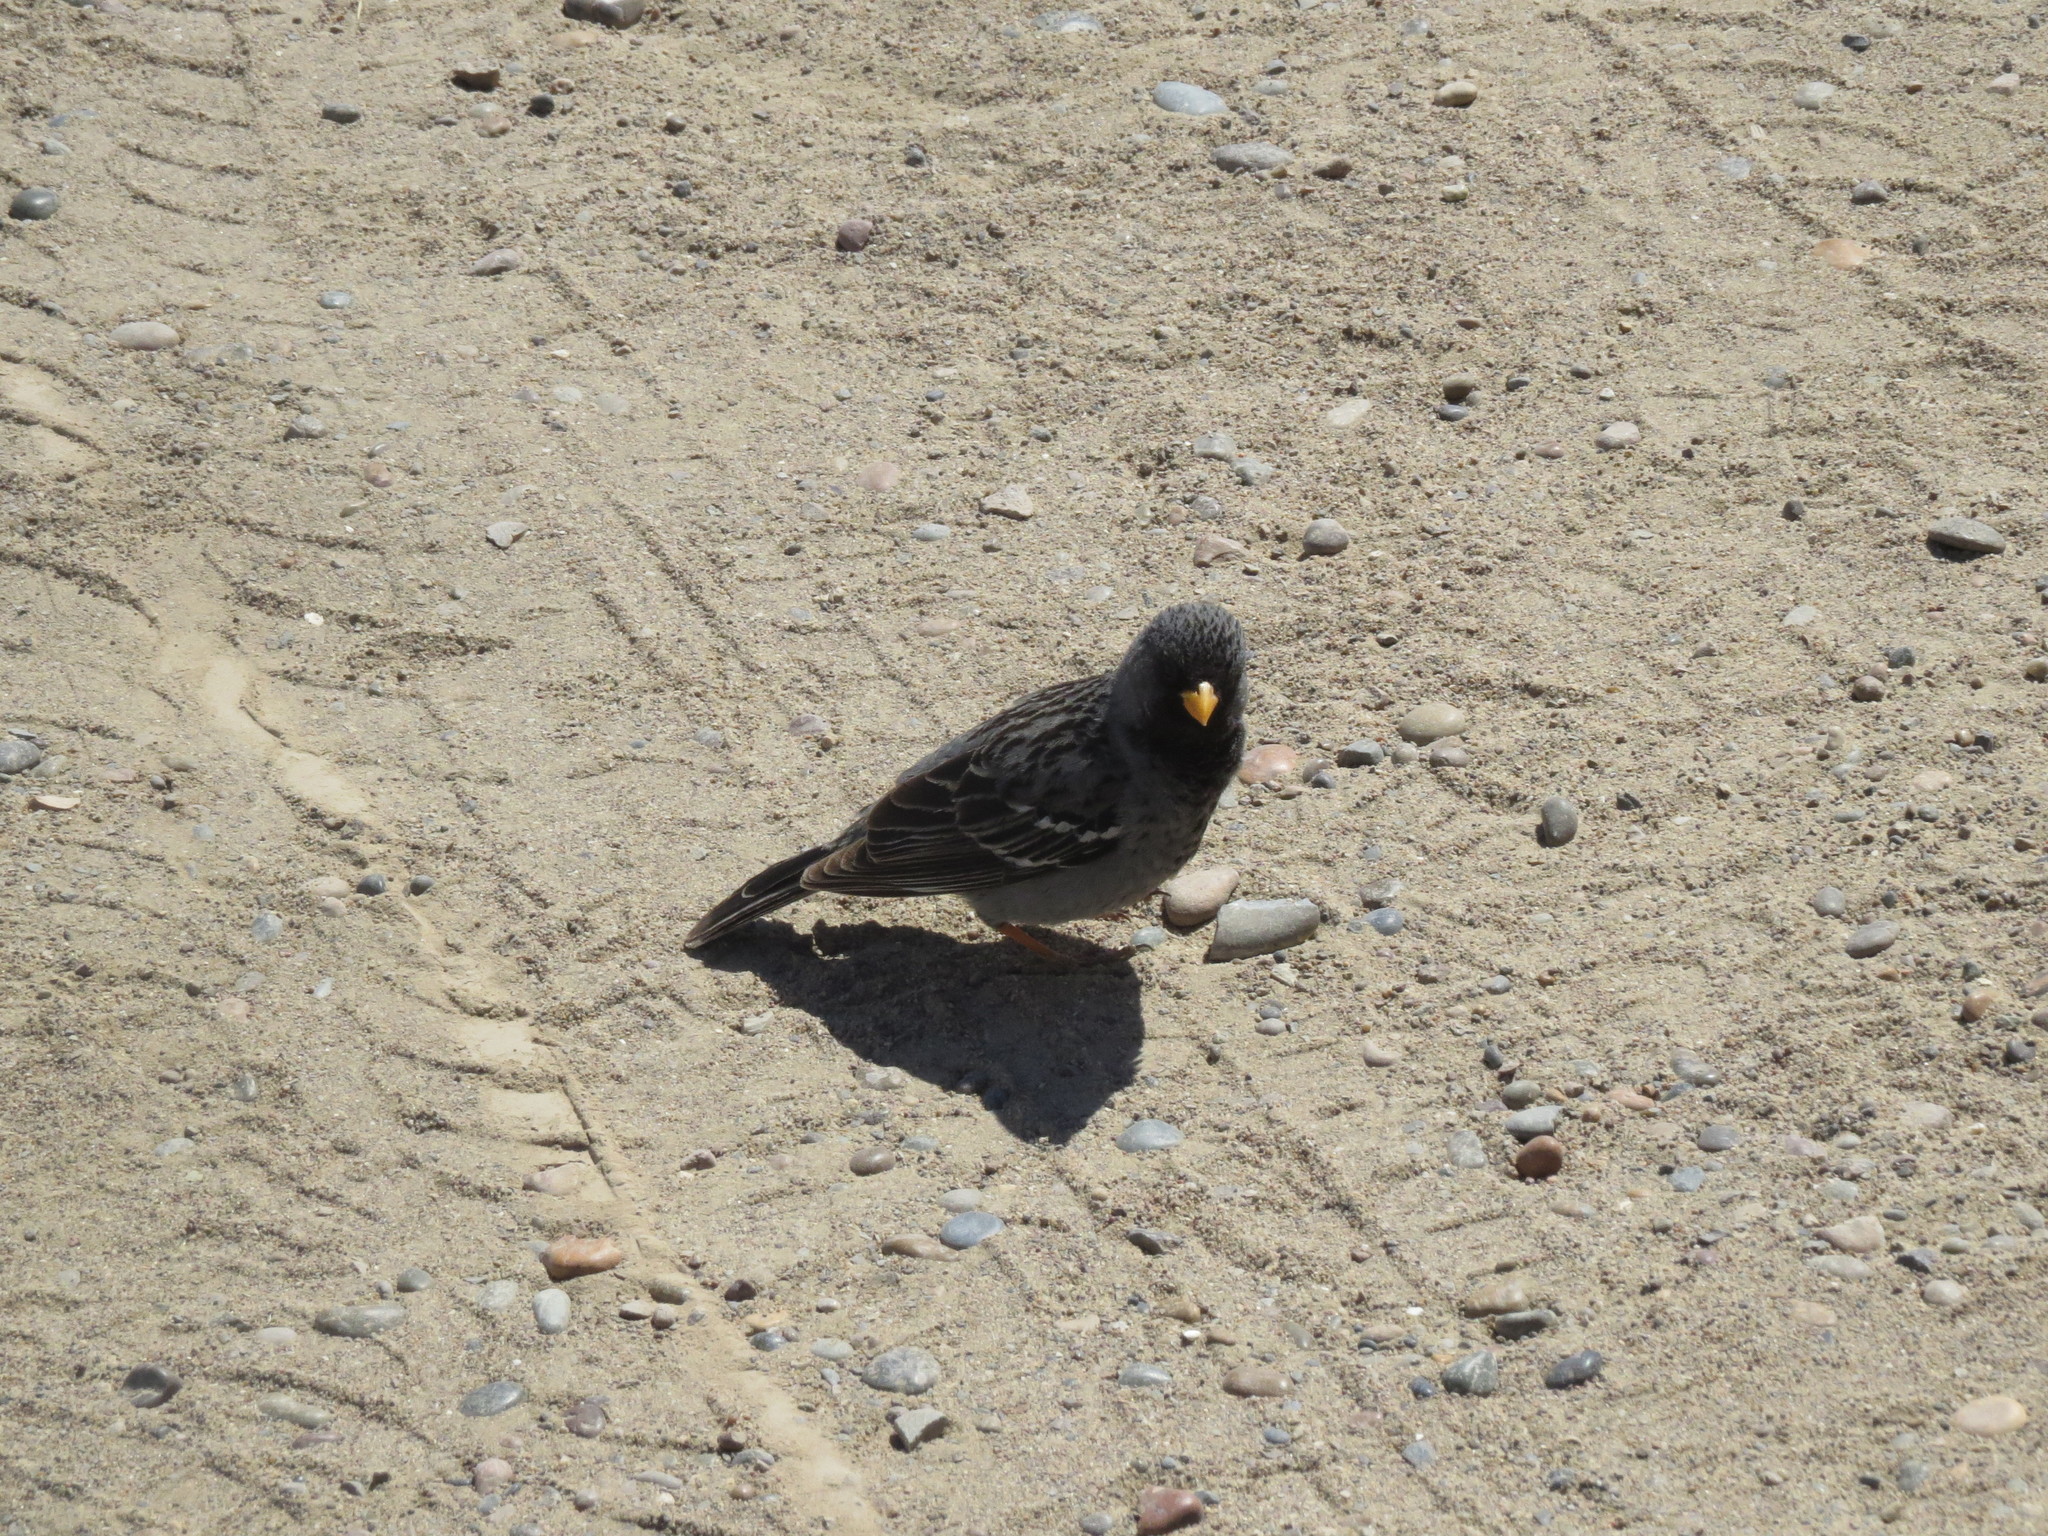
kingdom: Animalia
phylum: Chordata
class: Aves
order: Passeriformes
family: Thraupidae
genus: Rhopospina
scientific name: Rhopospina fruticeti
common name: Mourning sierra finch
